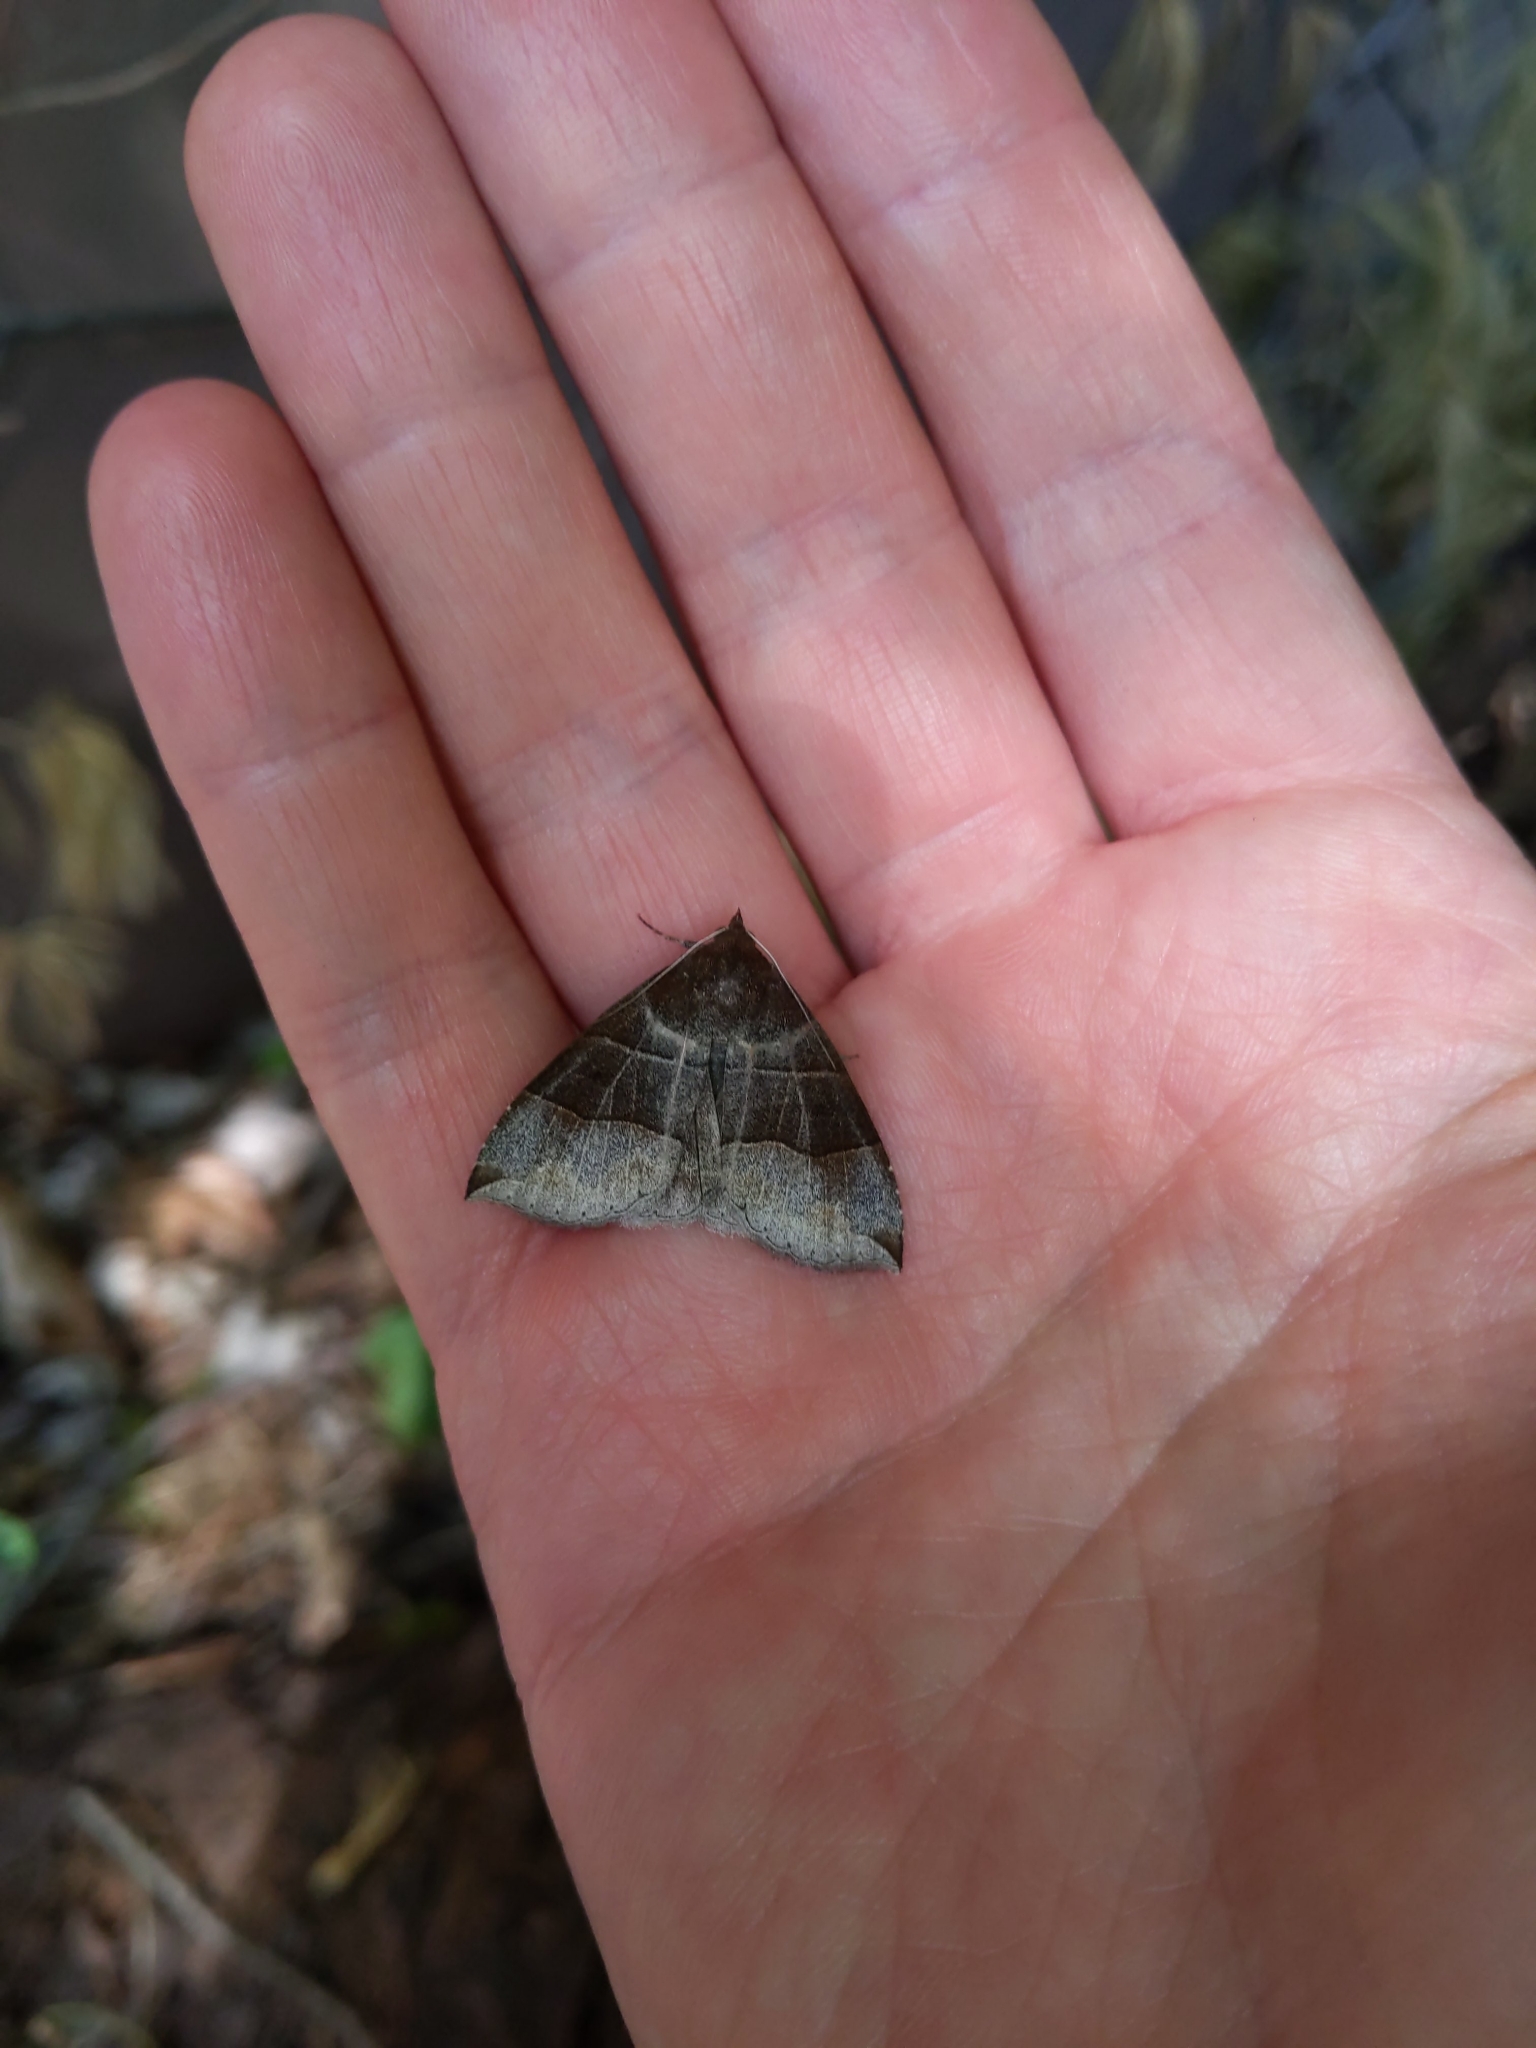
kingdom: Animalia
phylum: Arthropoda
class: Insecta
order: Lepidoptera
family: Erebidae
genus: Parallelia
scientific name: Parallelia bistriaris
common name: Maple looper moth
